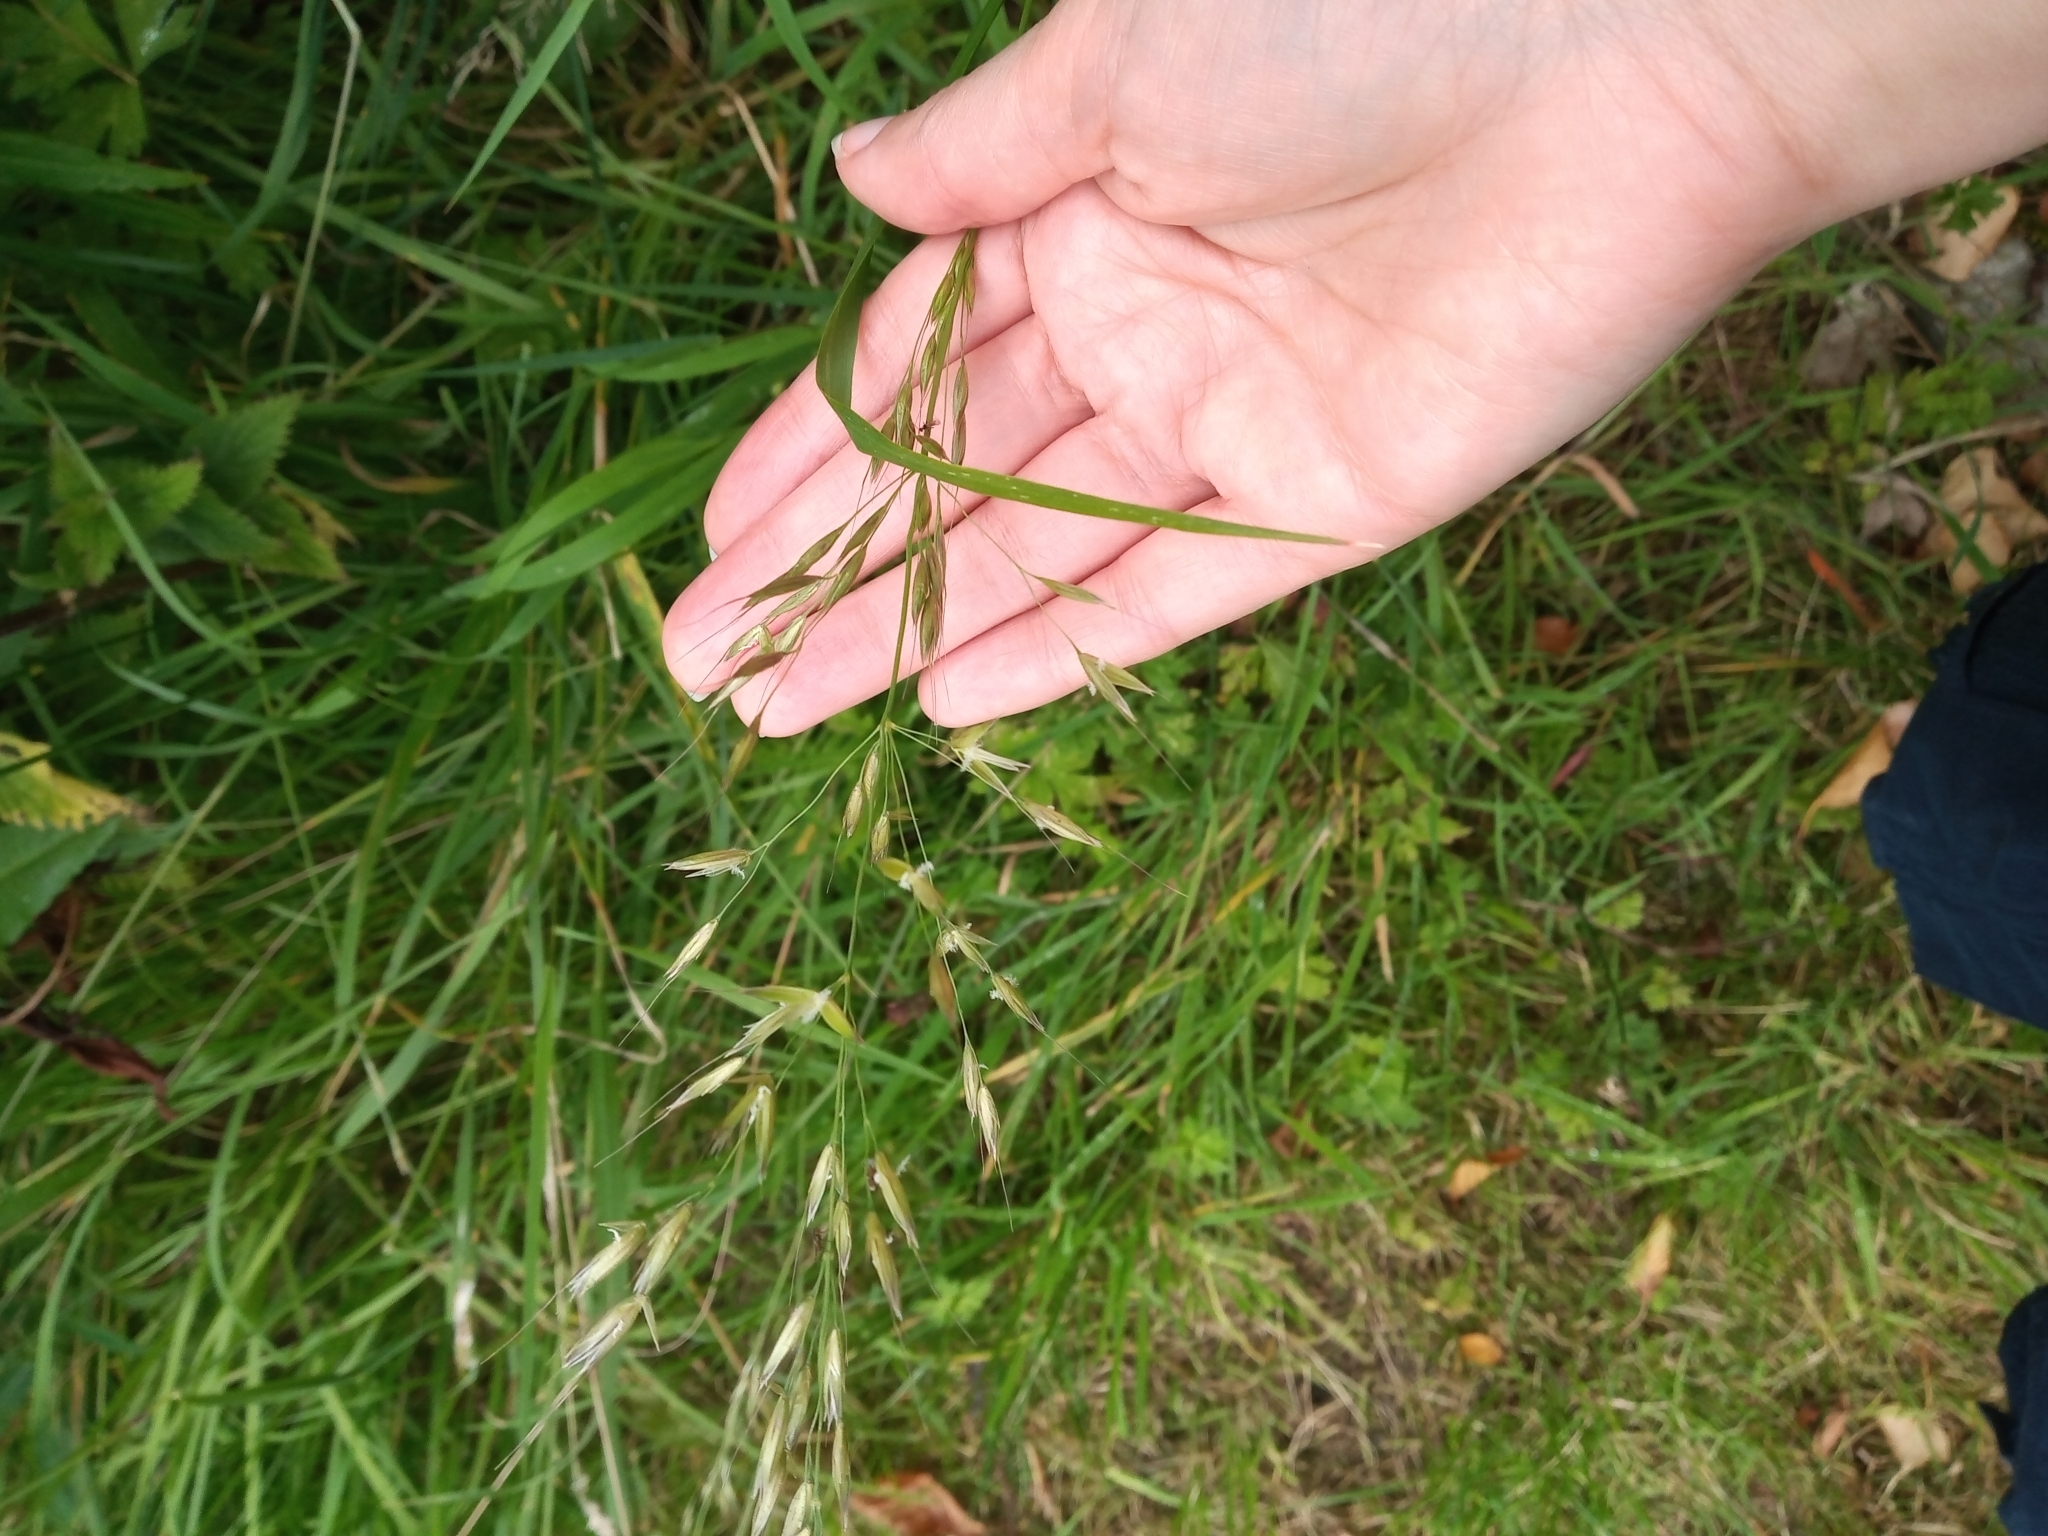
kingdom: Plantae
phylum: Tracheophyta
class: Liliopsida
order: Poales
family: Poaceae
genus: Arrhenatherum
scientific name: Arrhenatherum elatius
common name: Tall oatgrass
